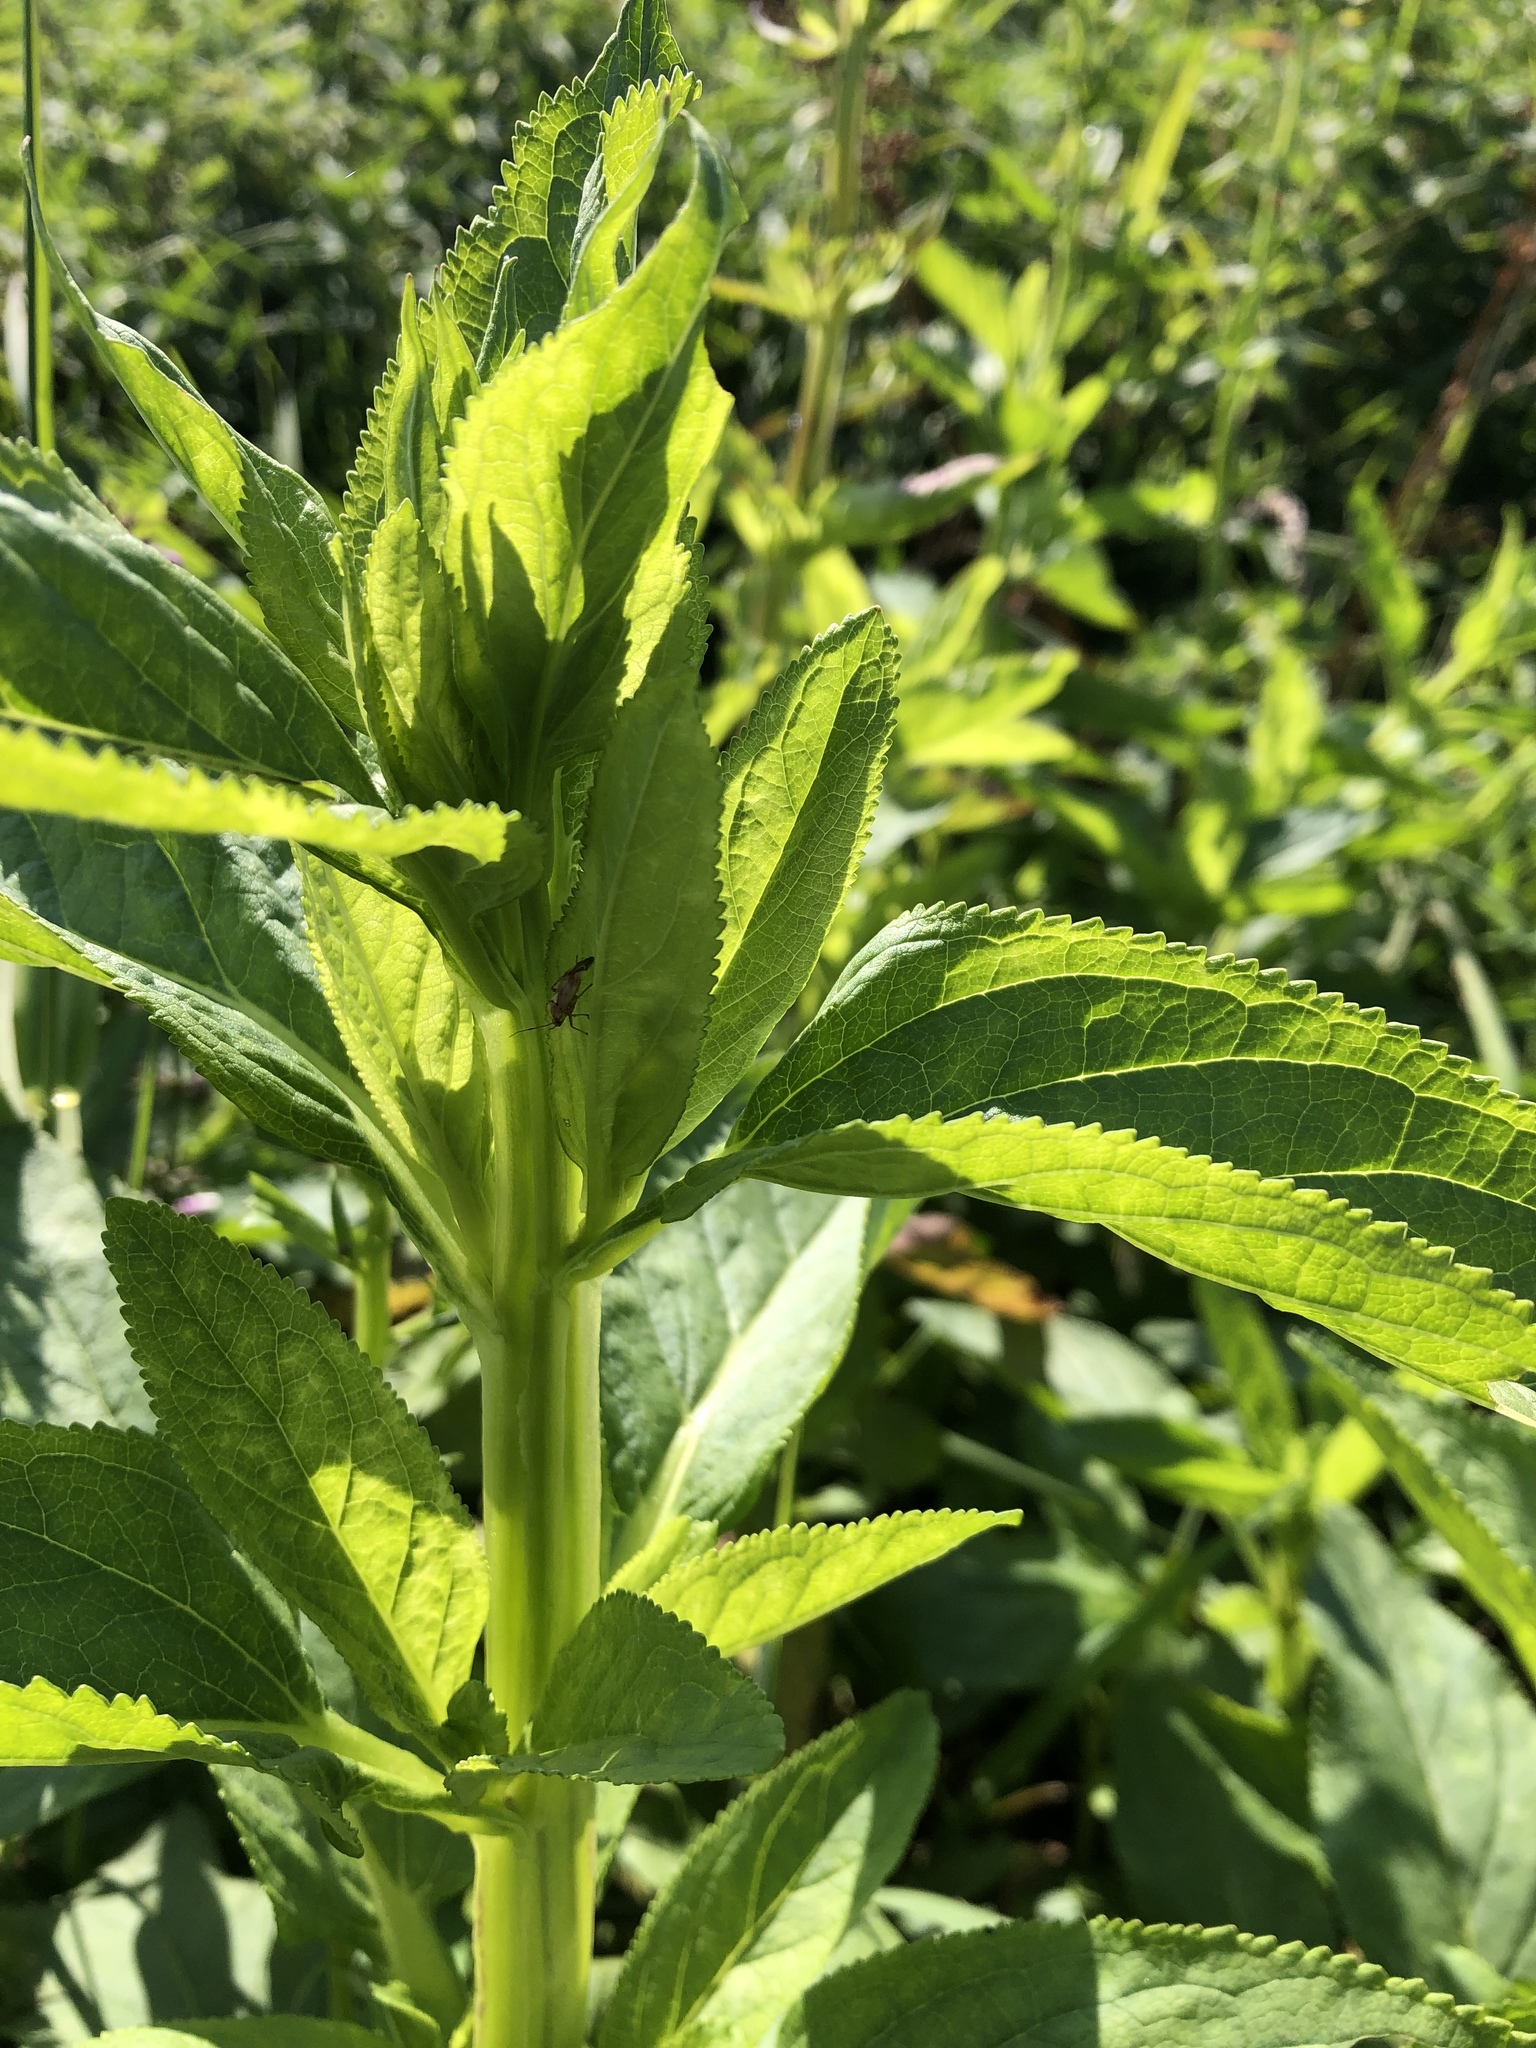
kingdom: Plantae
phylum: Tracheophyta
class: Magnoliopsida
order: Lamiales
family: Scrophulariaceae
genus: Scrophularia
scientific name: Scrophularia umbrosa
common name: Green figwort
